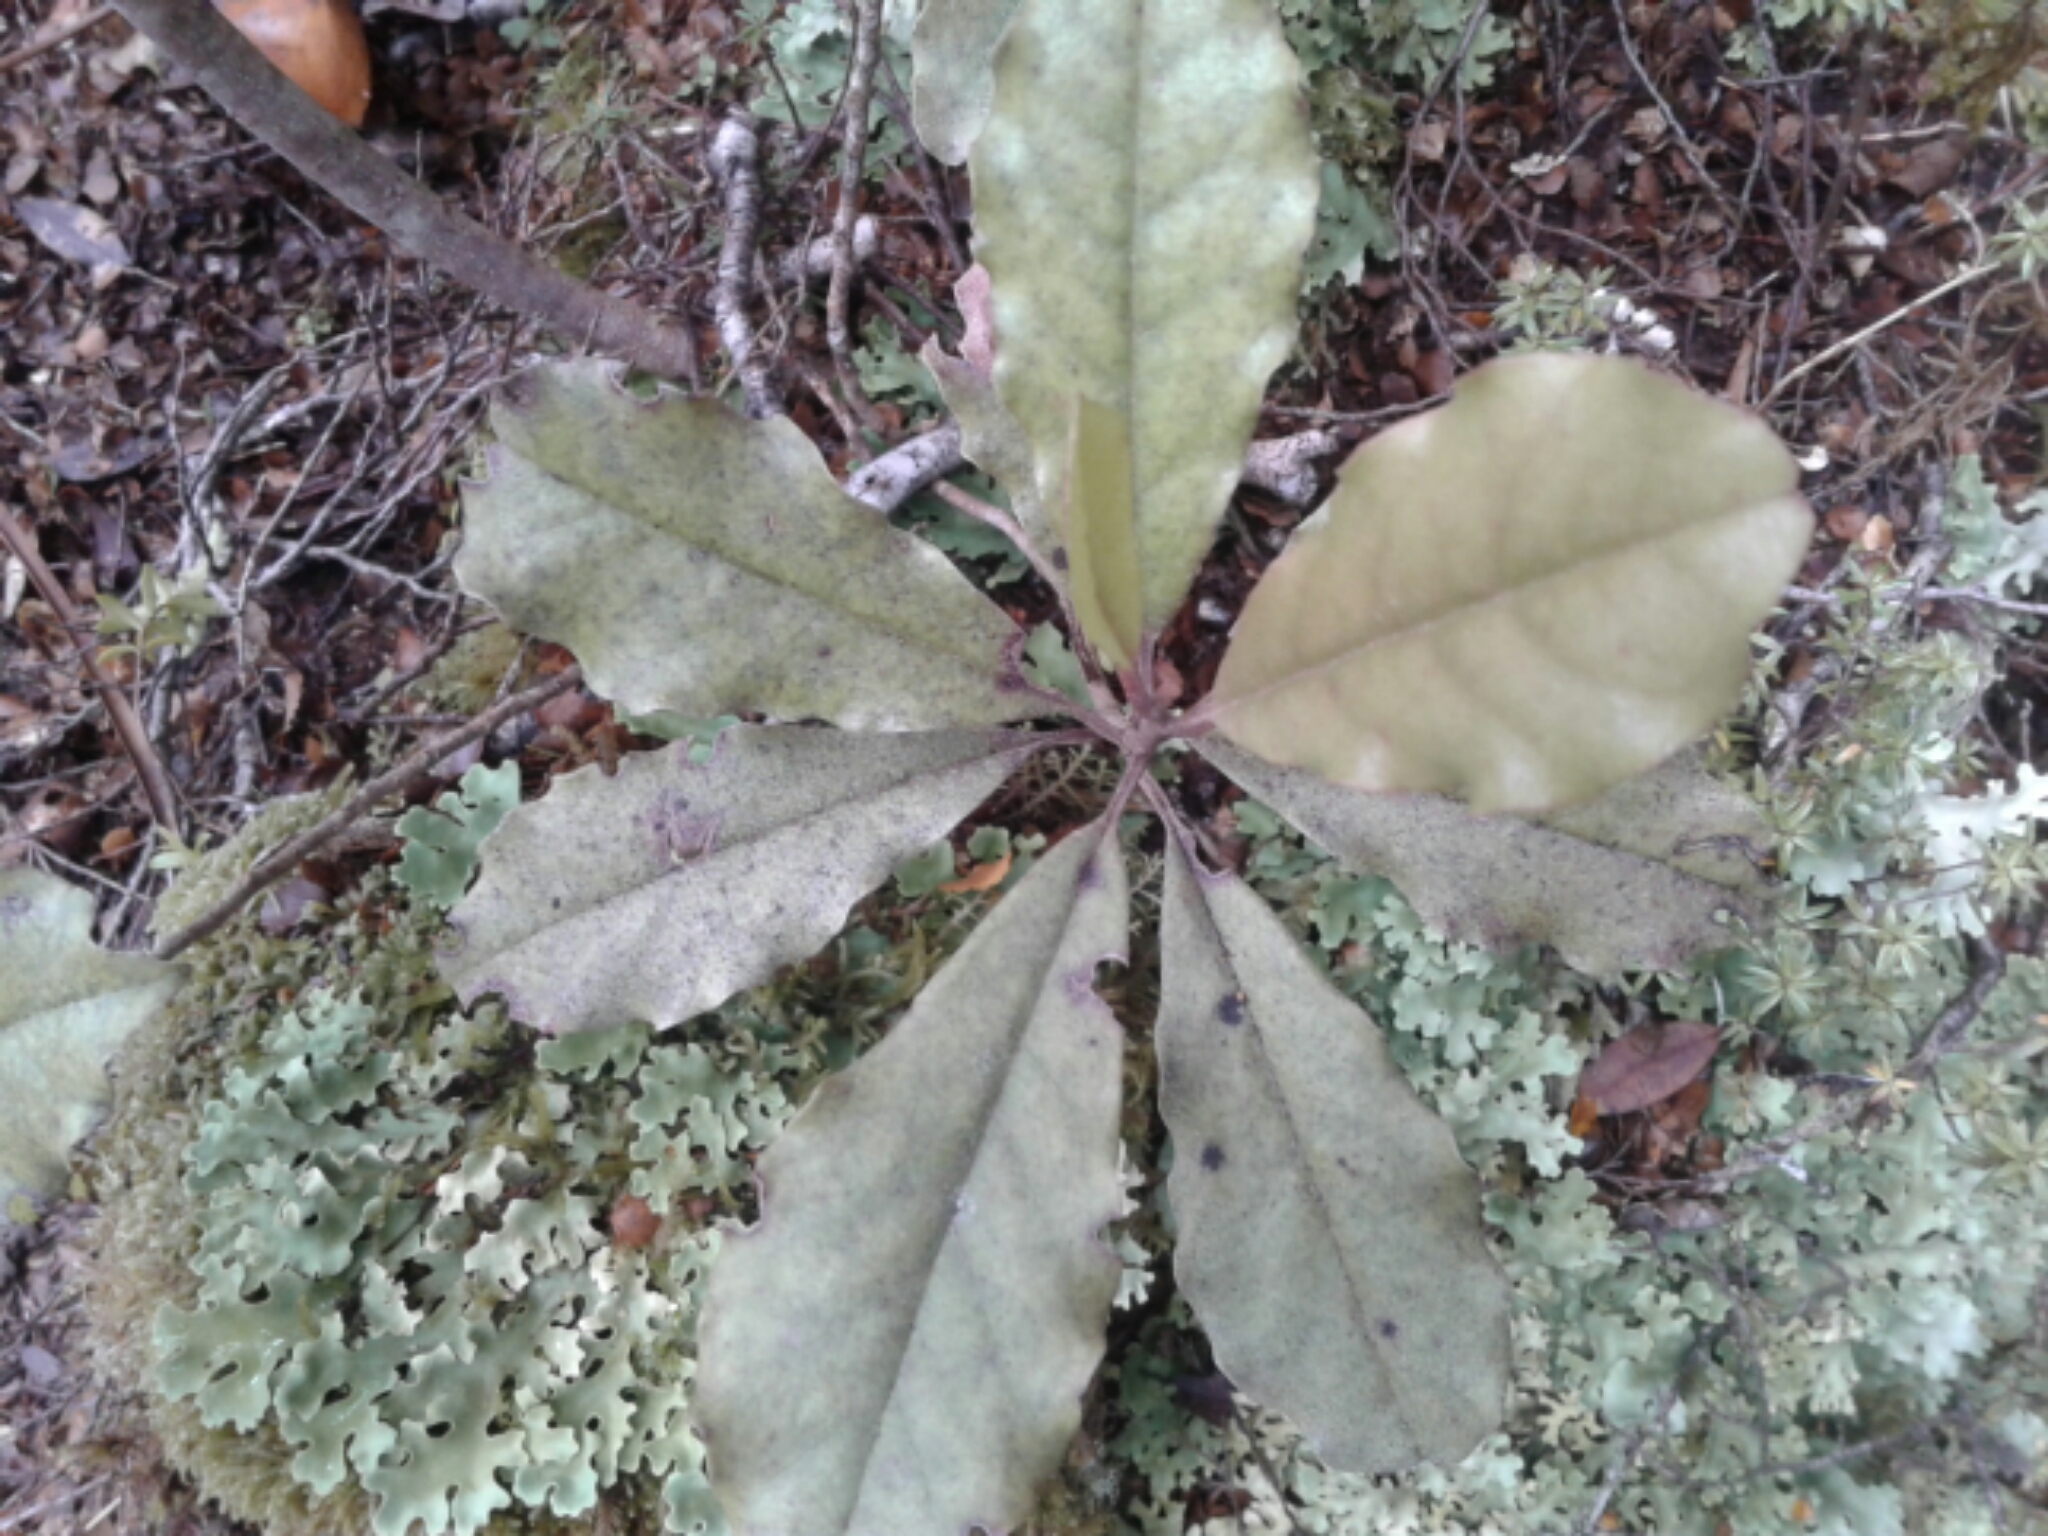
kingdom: Plantae
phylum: Tracheophyta
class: Magnoliopsida
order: Paracryphiales
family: Paracryphiaceae
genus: Quintinia
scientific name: Quintinia serrata
